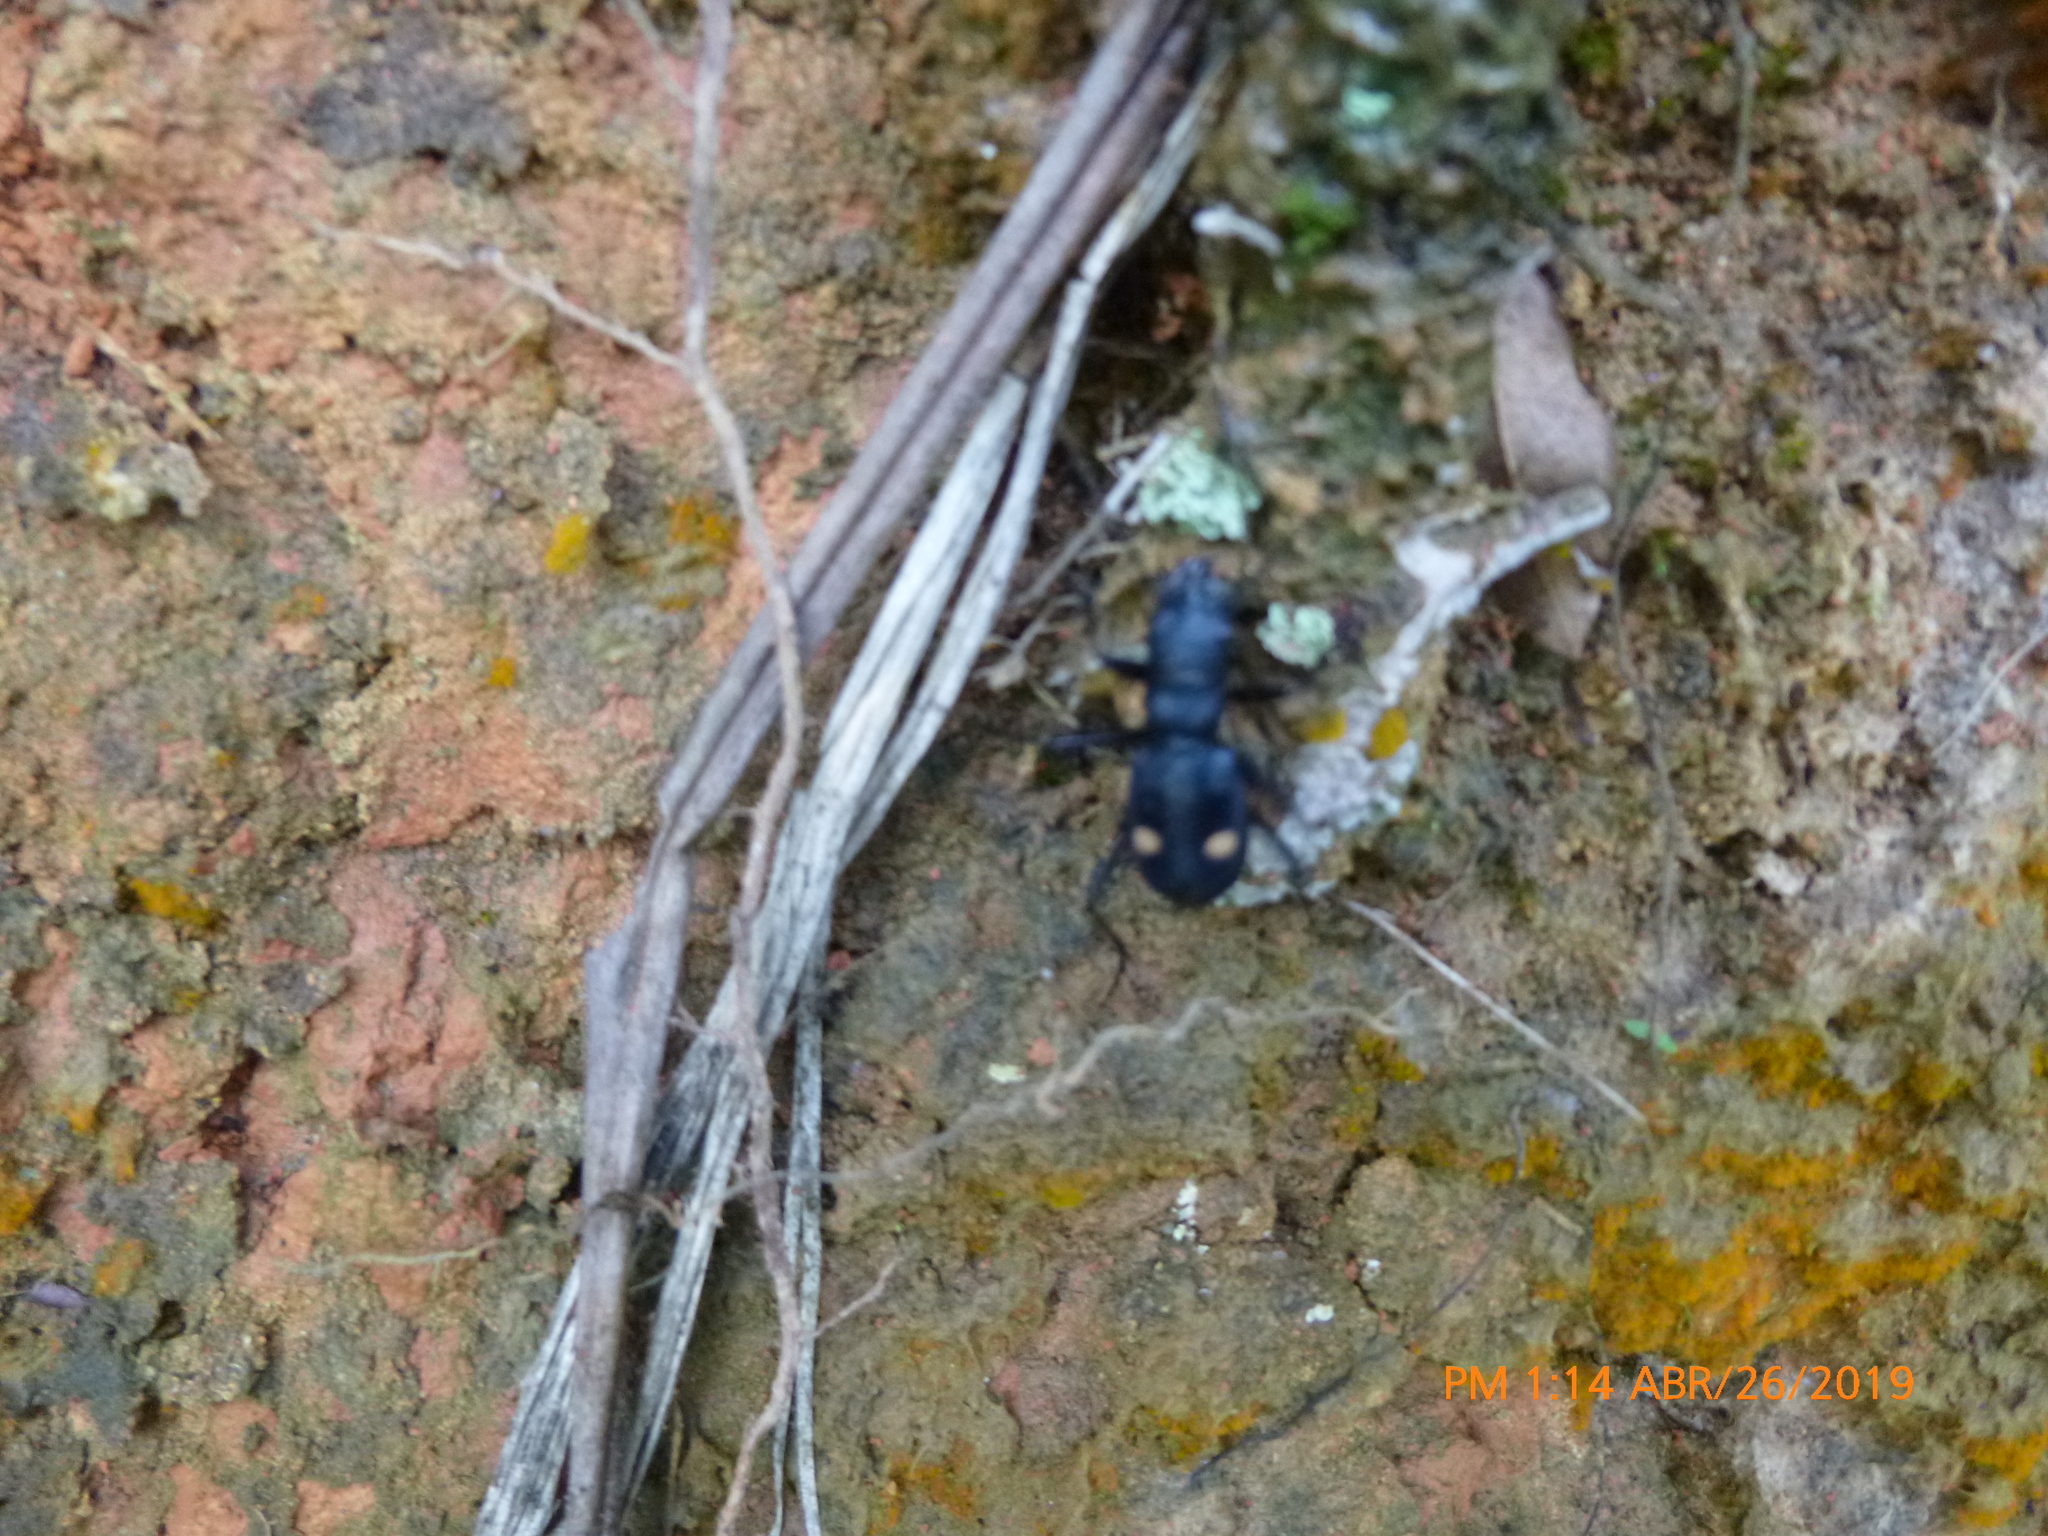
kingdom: Animalia
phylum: Arthropoda
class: Insecta
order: Coleoptera
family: Carabidae
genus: Pseudoxycheila
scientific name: Pseudoxycheila bipustulata
